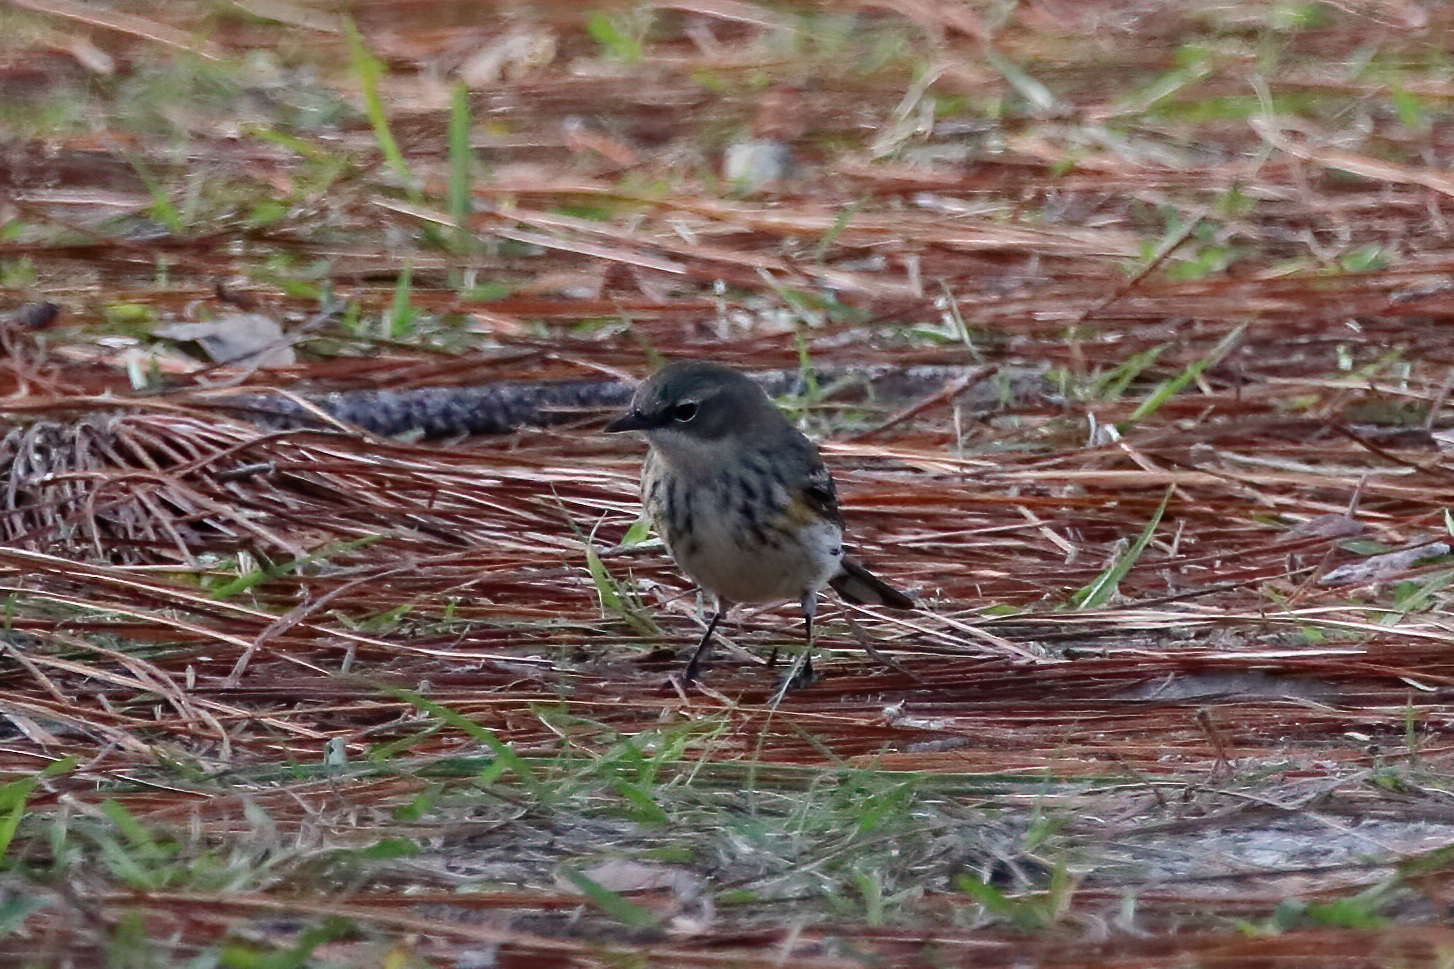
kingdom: Animalia
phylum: Chordata
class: Aves
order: Passeriformes
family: Parulidae
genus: Setophaga
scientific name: Setophaga coronata
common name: Myrtle warbler
